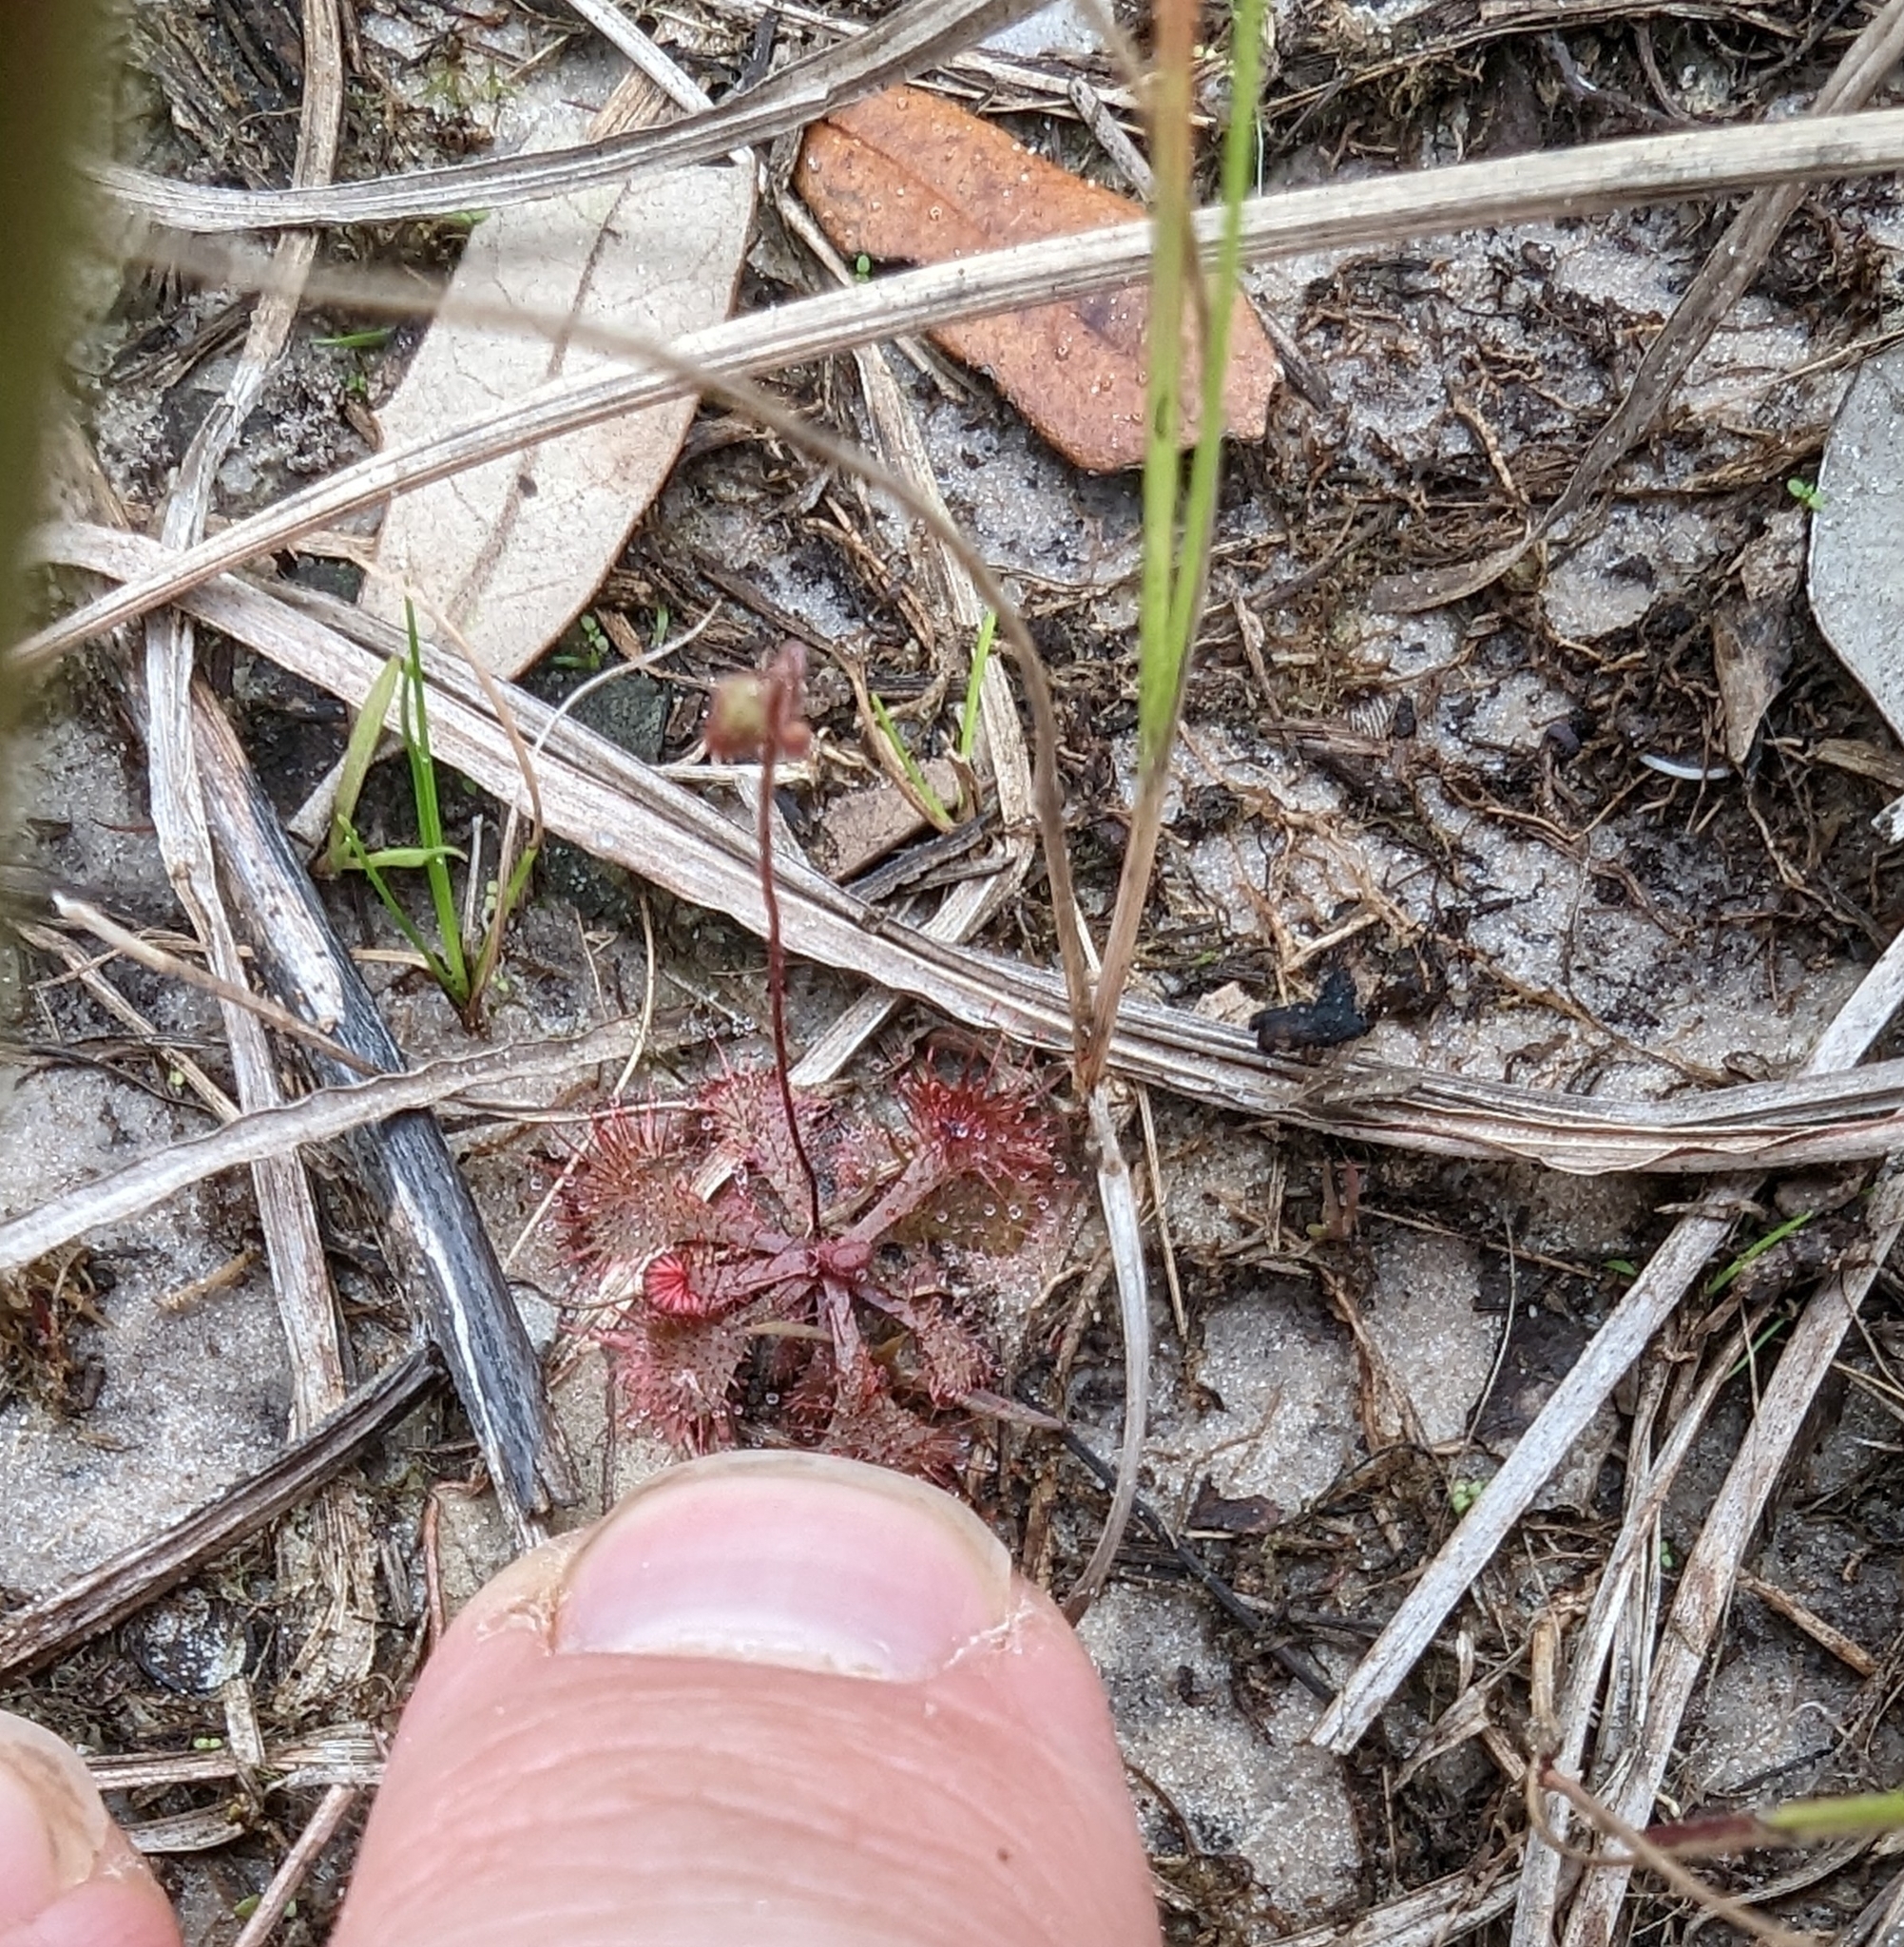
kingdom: Plantae
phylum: Tracheophyta
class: Magnoliopsida
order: Caryophyllales
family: Droseraceae
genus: Drosera
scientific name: Drosera brevifolia
